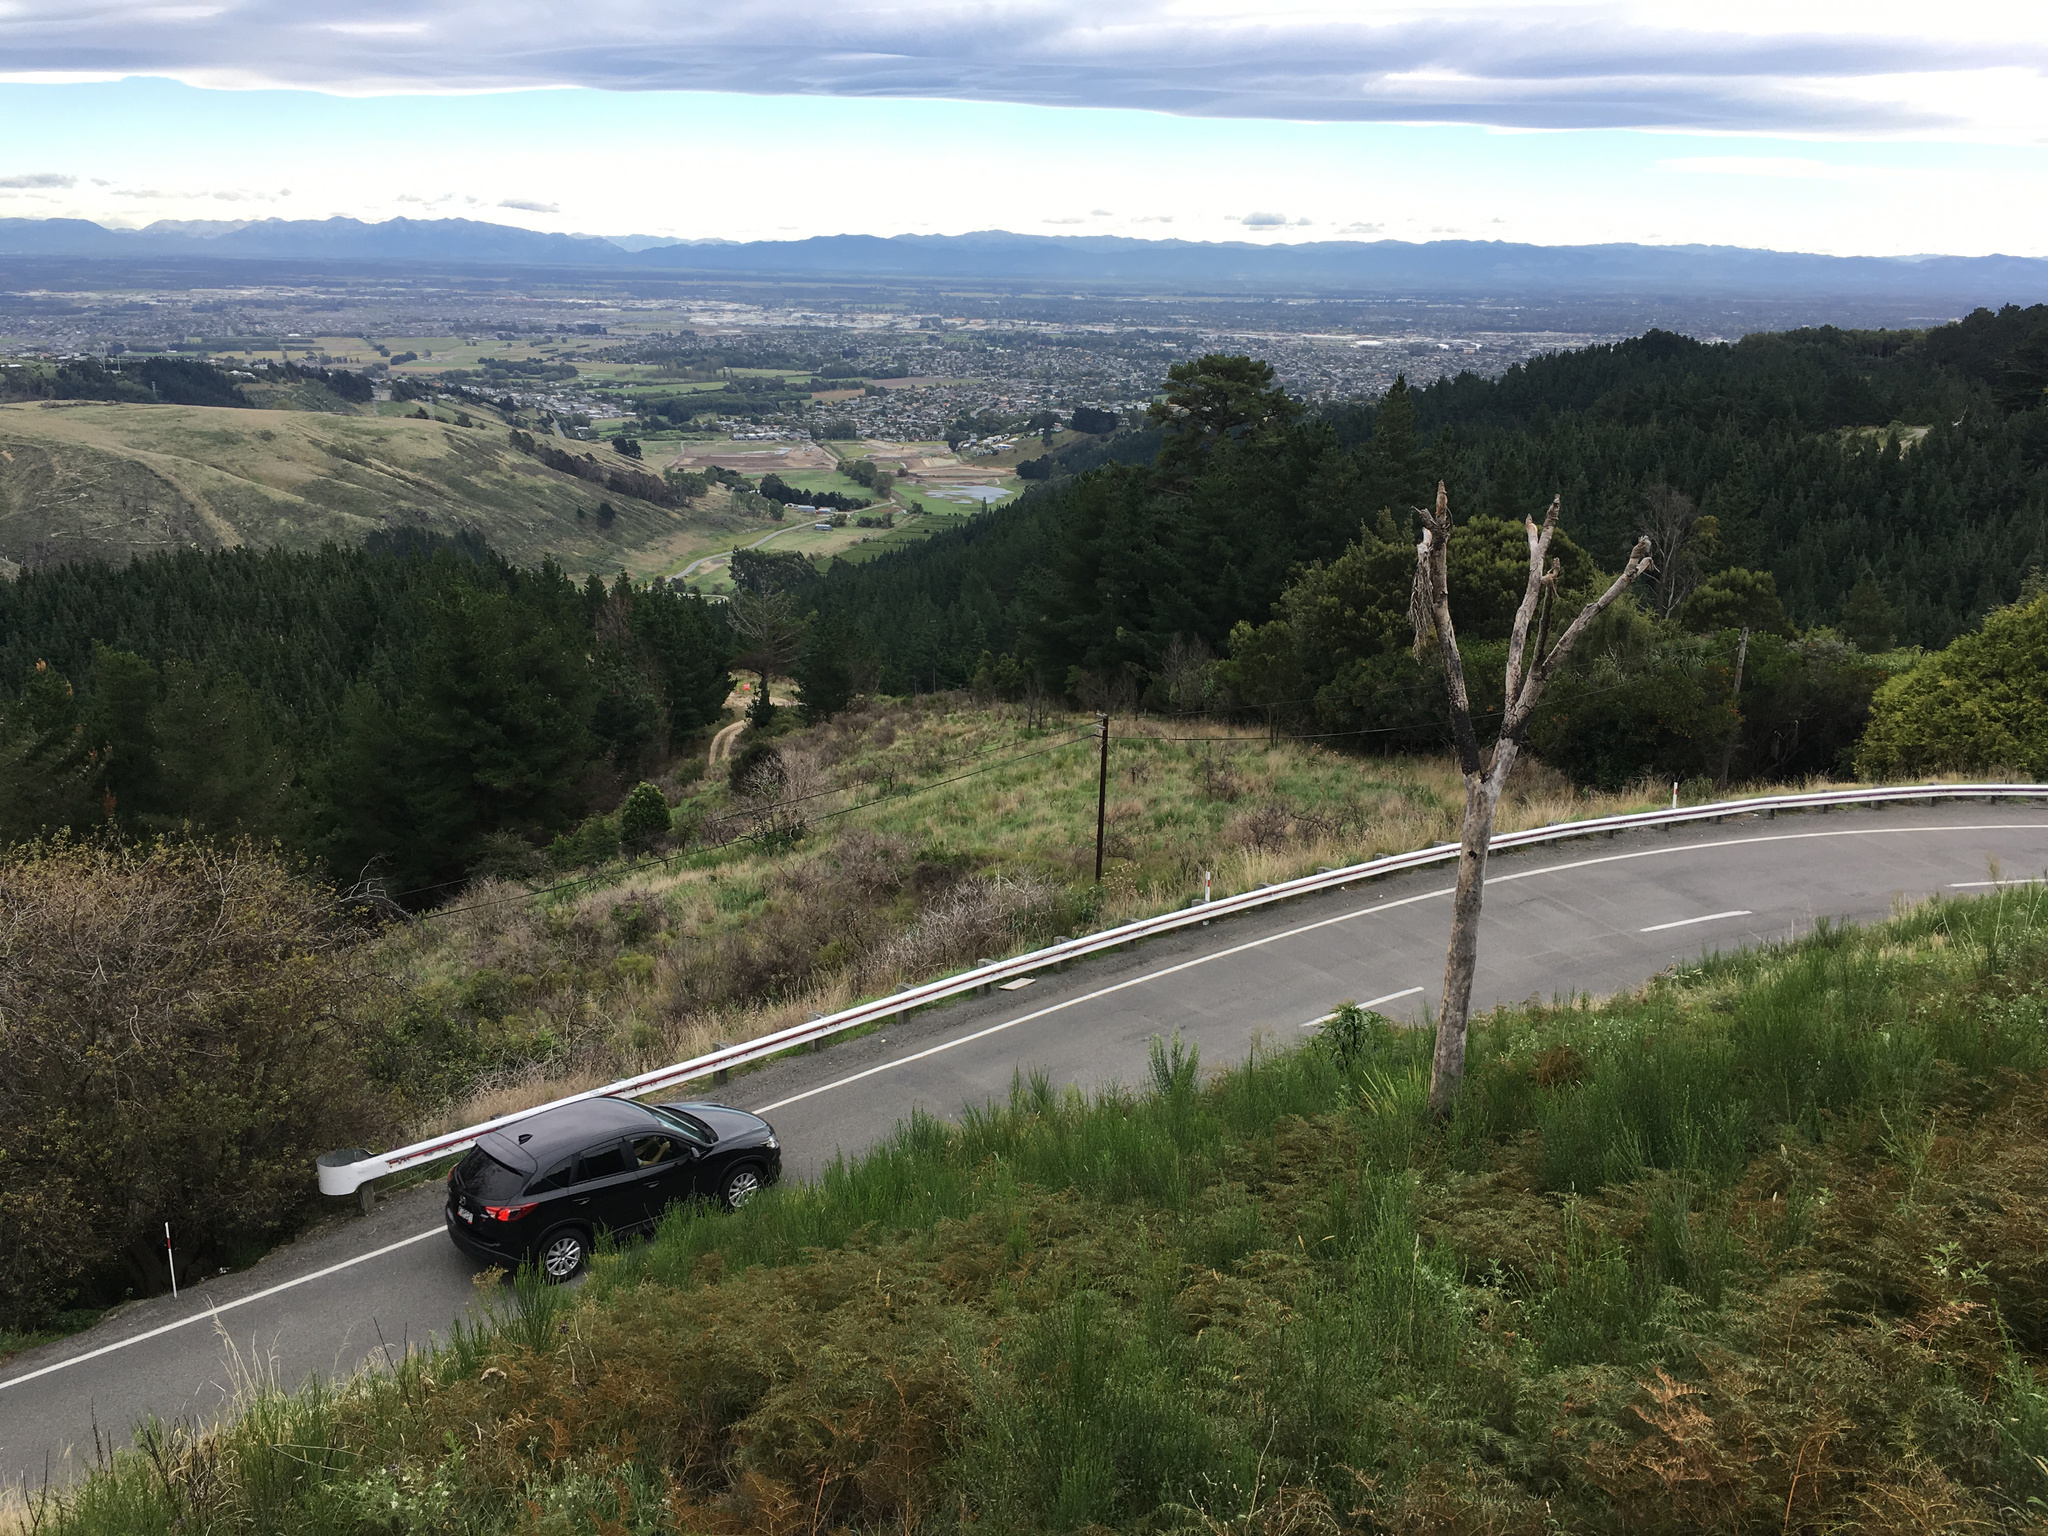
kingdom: Plantae
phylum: Tracheophyta
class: Magnoliopsida
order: Fabales
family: Fabaceae
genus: Cytisus
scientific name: Cytisus scoparius
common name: Scotch broom
